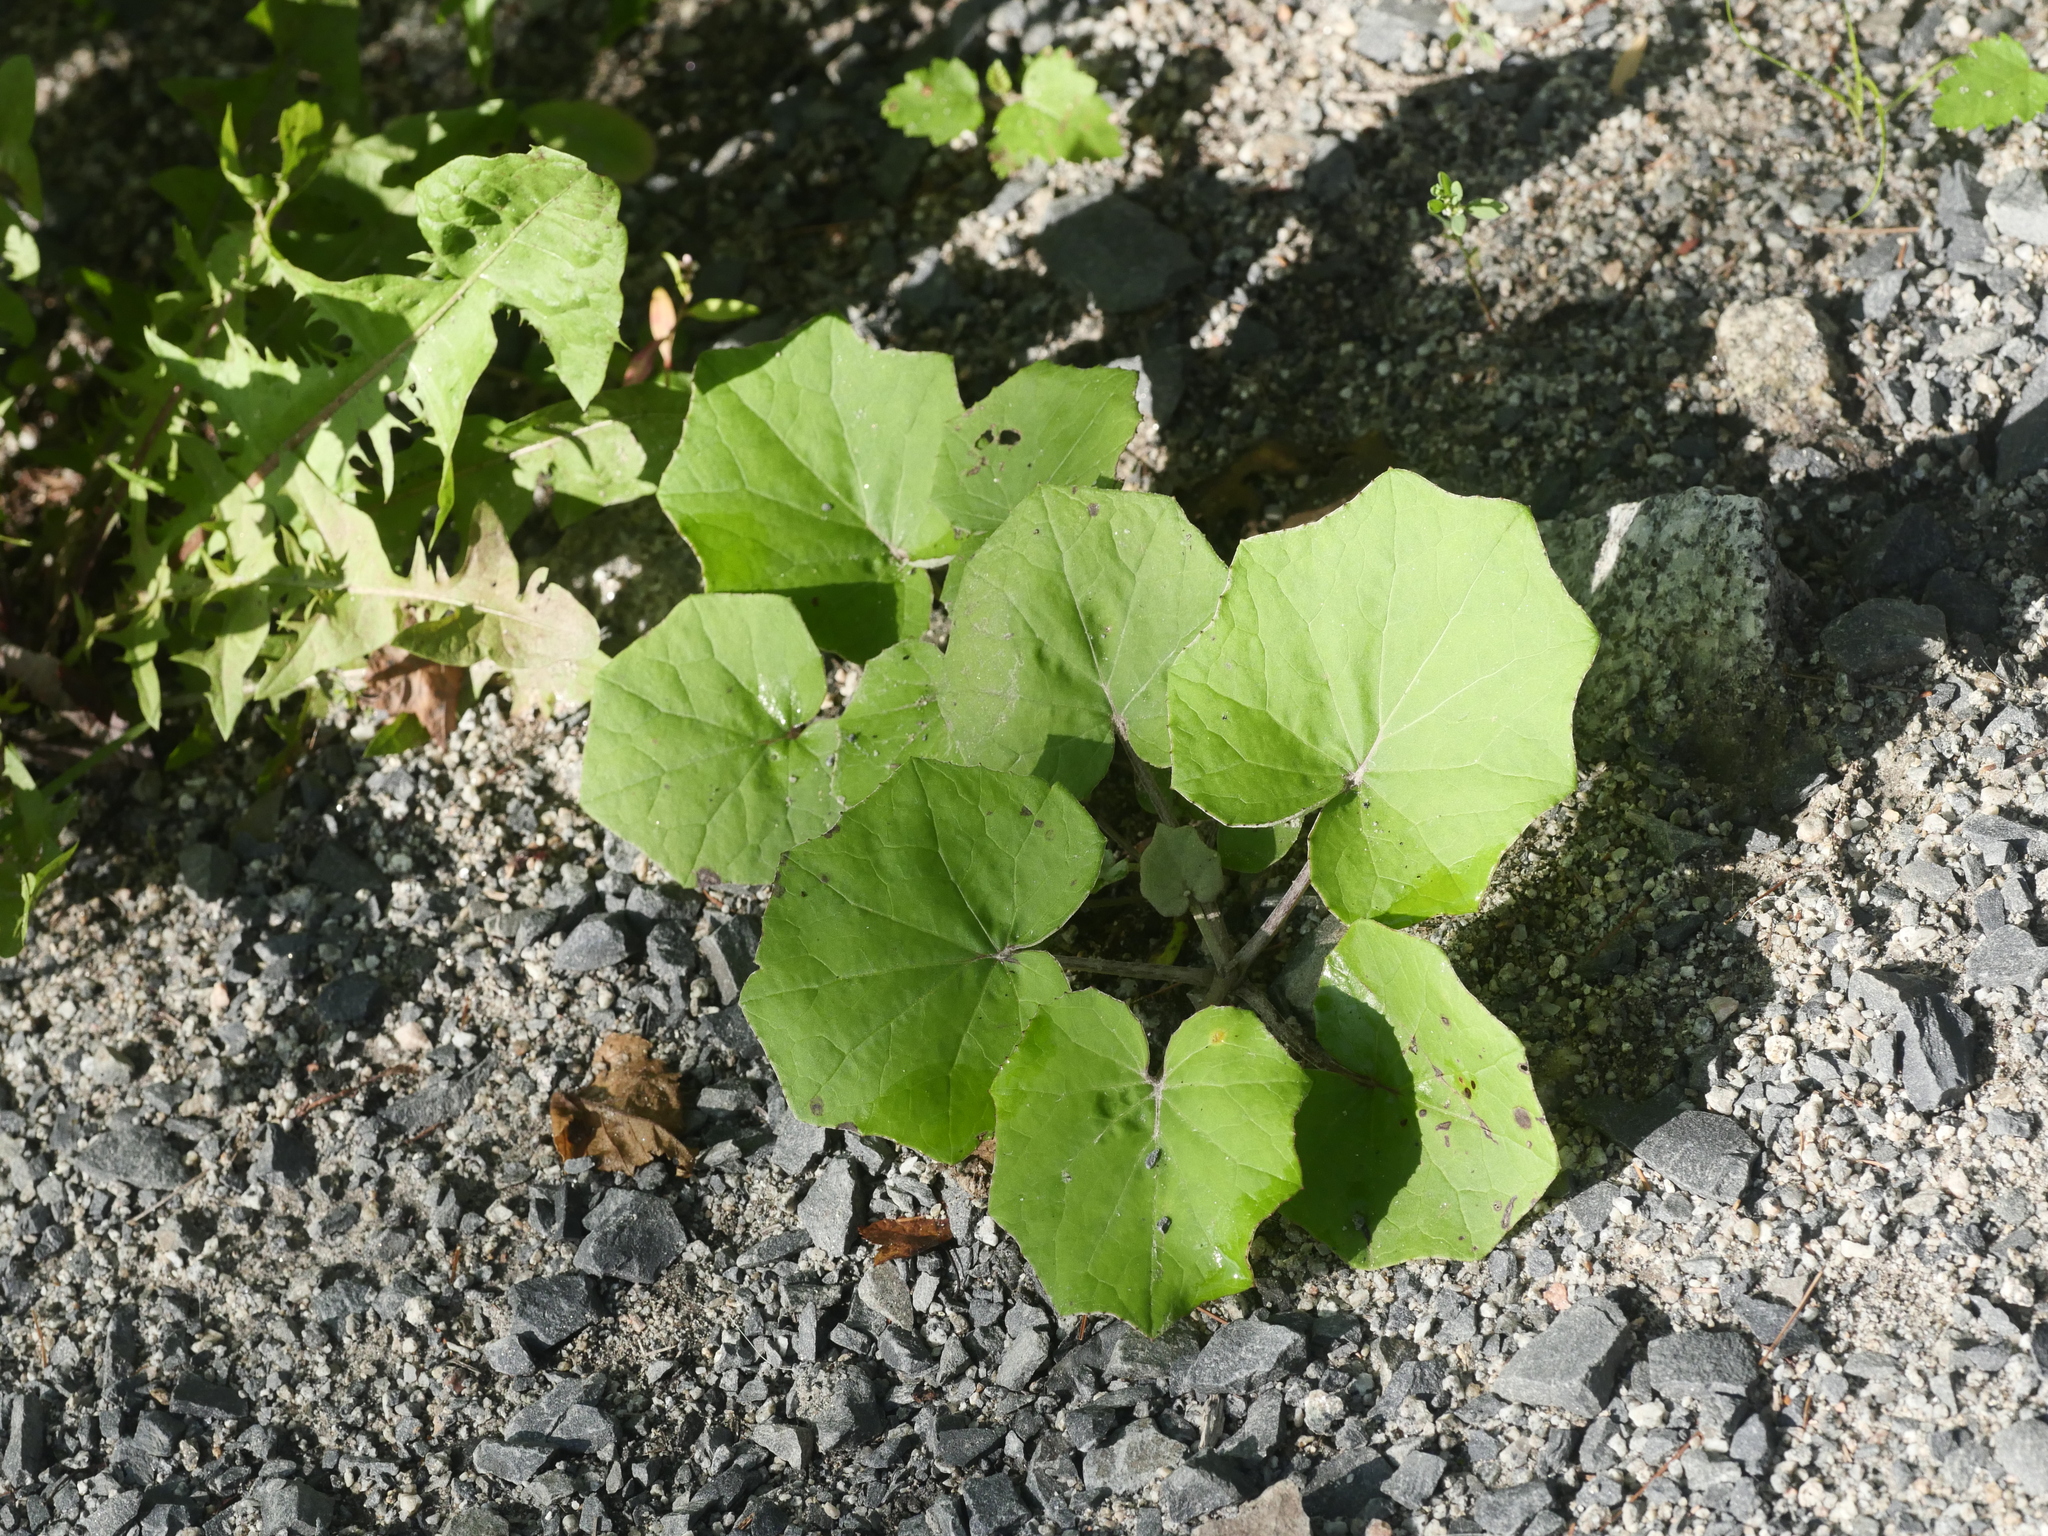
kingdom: Plantae
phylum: Tracheophyta
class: Magnoliopsida
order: Asterales
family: Asteraceae
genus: Tussilago
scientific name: Tussilago farfara
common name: Coltsfoot
